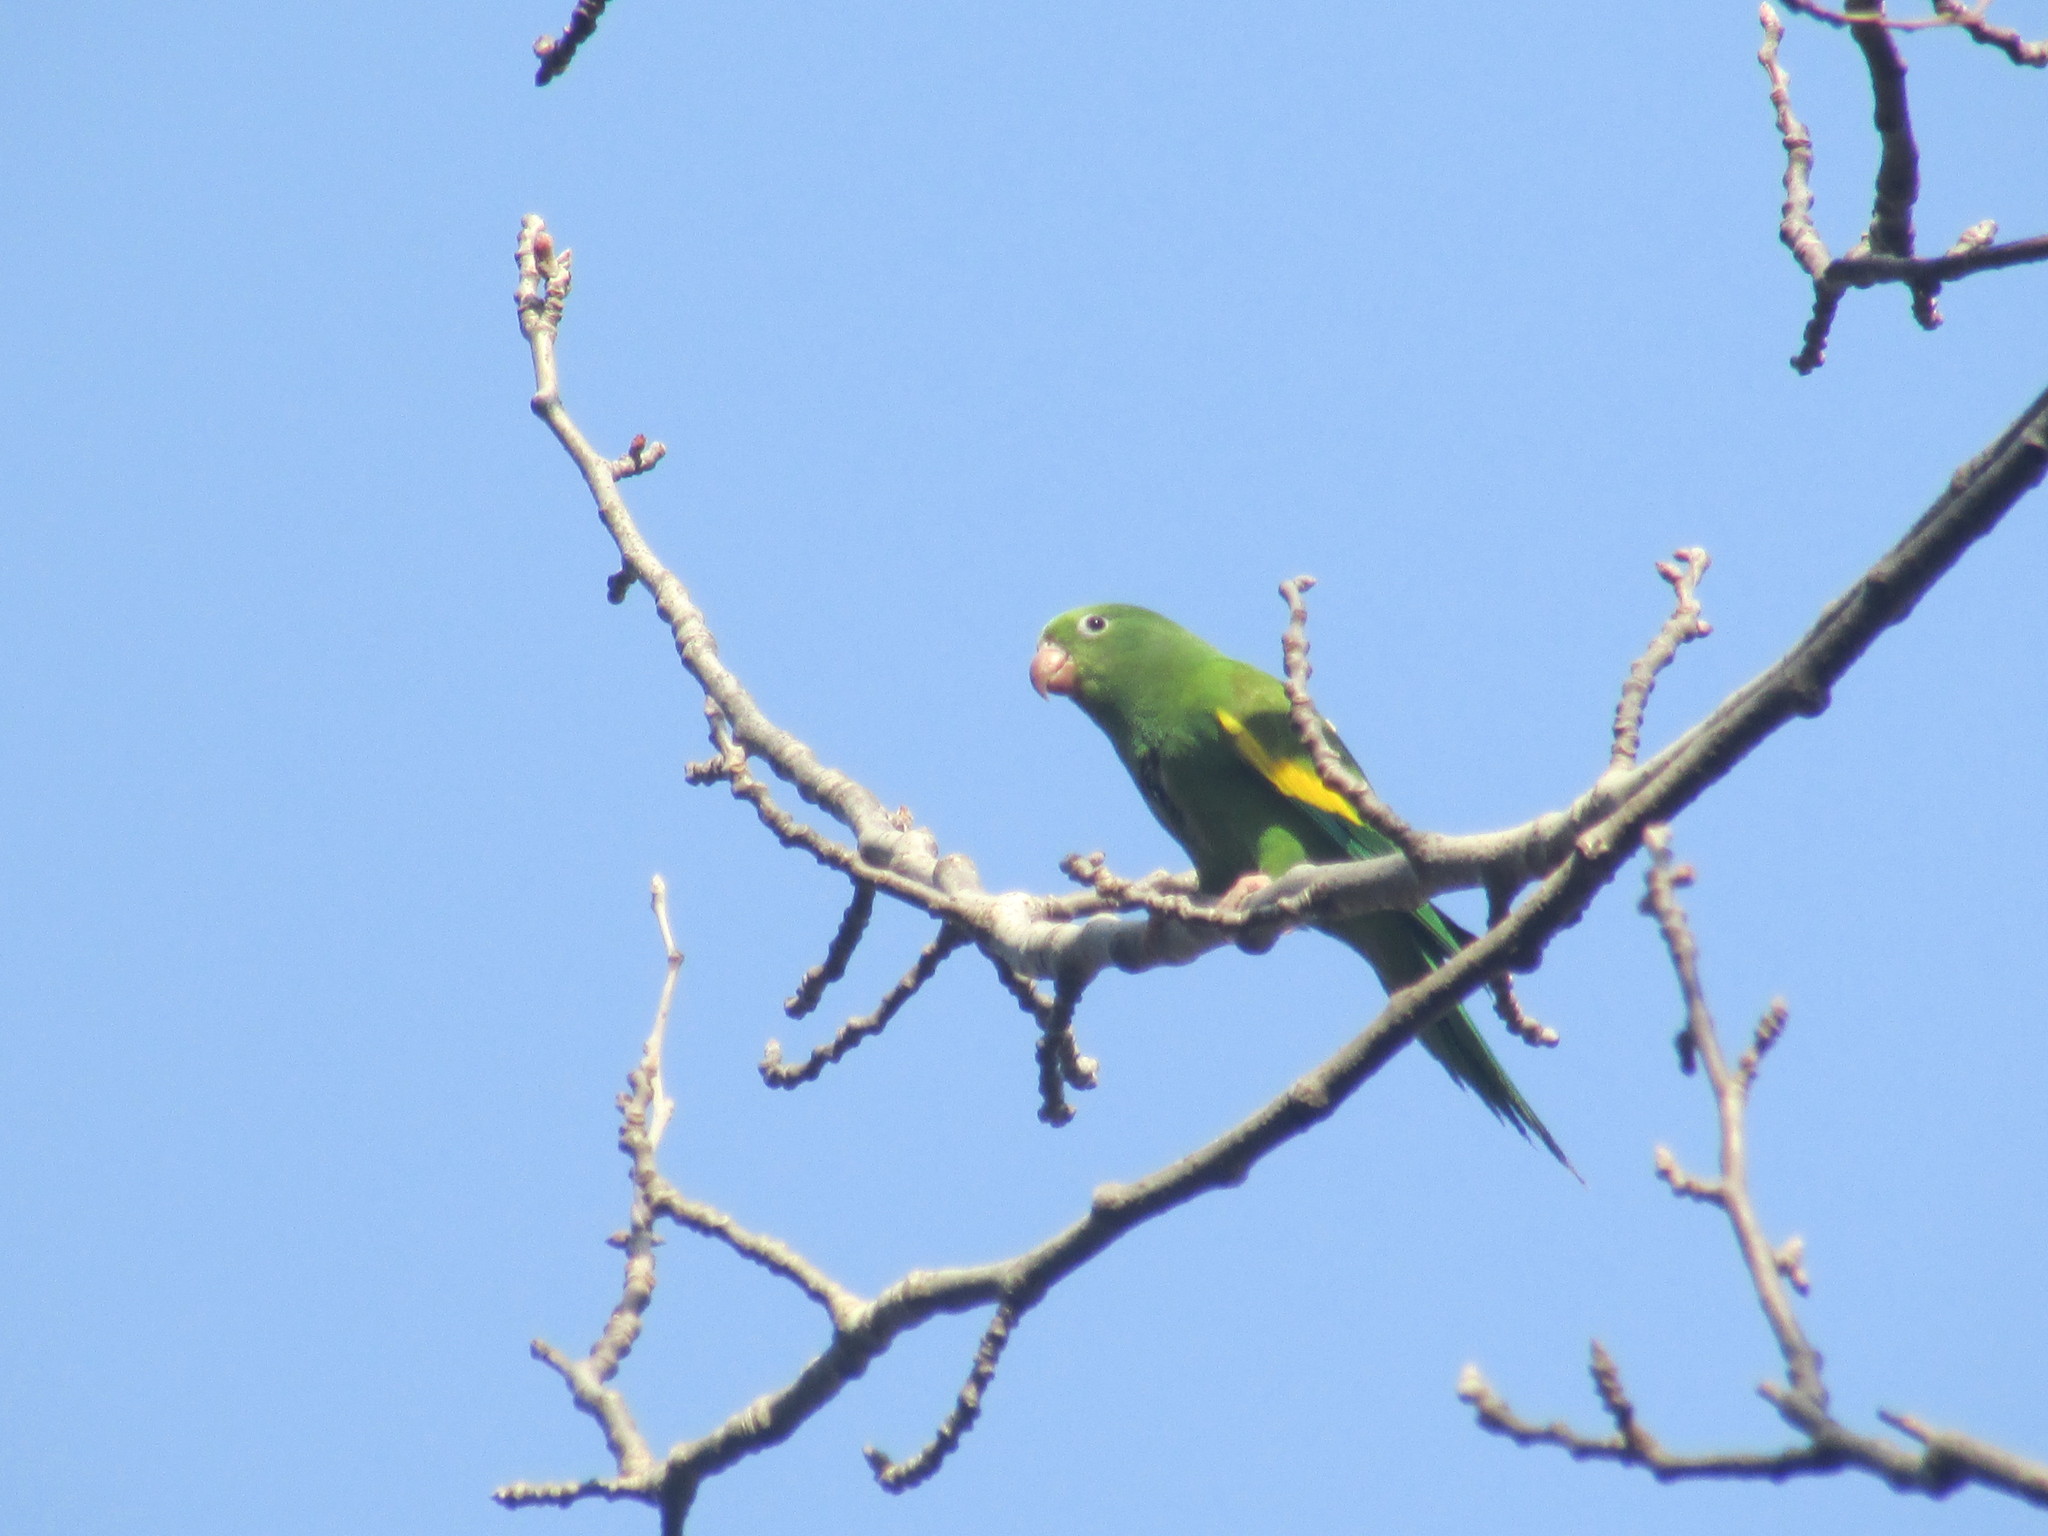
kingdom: Animalia
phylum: Chordata
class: Aves
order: Psittaciformes
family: Psittacidae
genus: Brotogeris
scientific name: Brotogeris chiriri
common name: Yellow-chevroned parakeet
